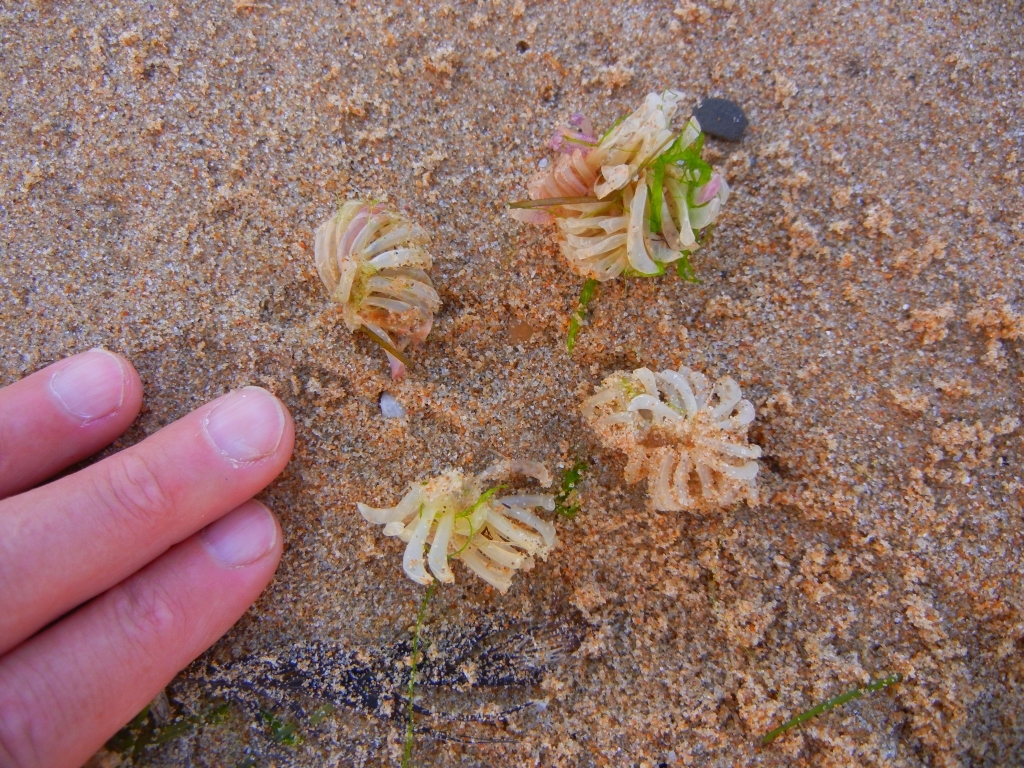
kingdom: Animalia
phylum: Mollusca
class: Gastropoda
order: Neogastropoda
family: Muricidae
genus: Rapana
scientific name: Rapana venosa
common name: Veined rapa whelk
